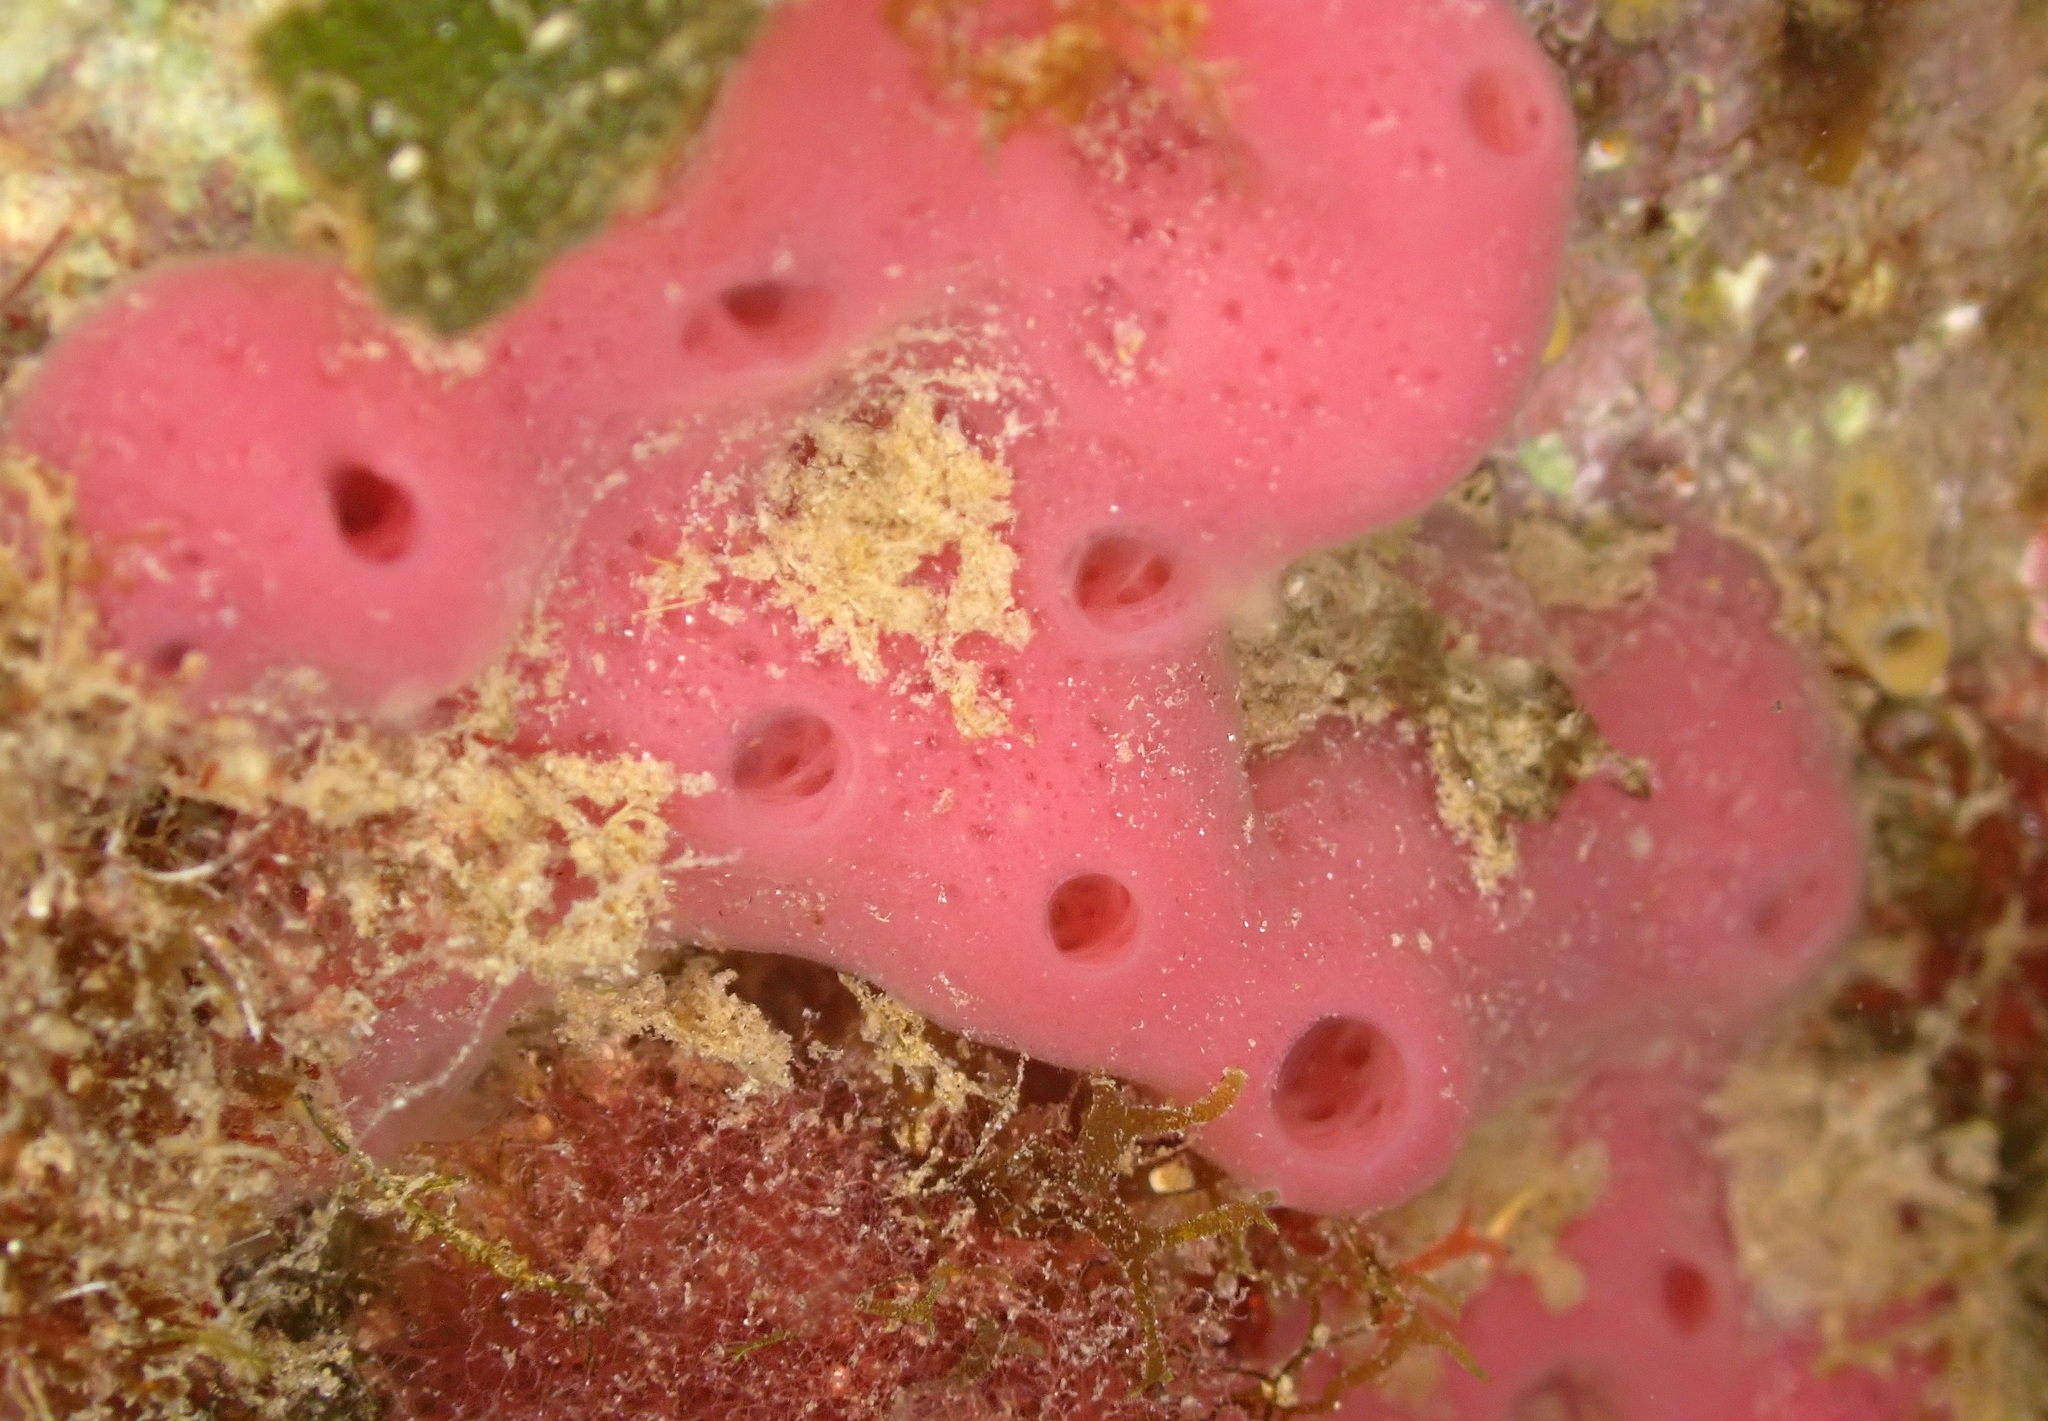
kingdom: Animalia
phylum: Porifera
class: Demospongiae
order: Haplosclerida
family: Chalinidae
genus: Haliclona
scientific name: Haliclona mediterranea
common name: Pink tube sponge
